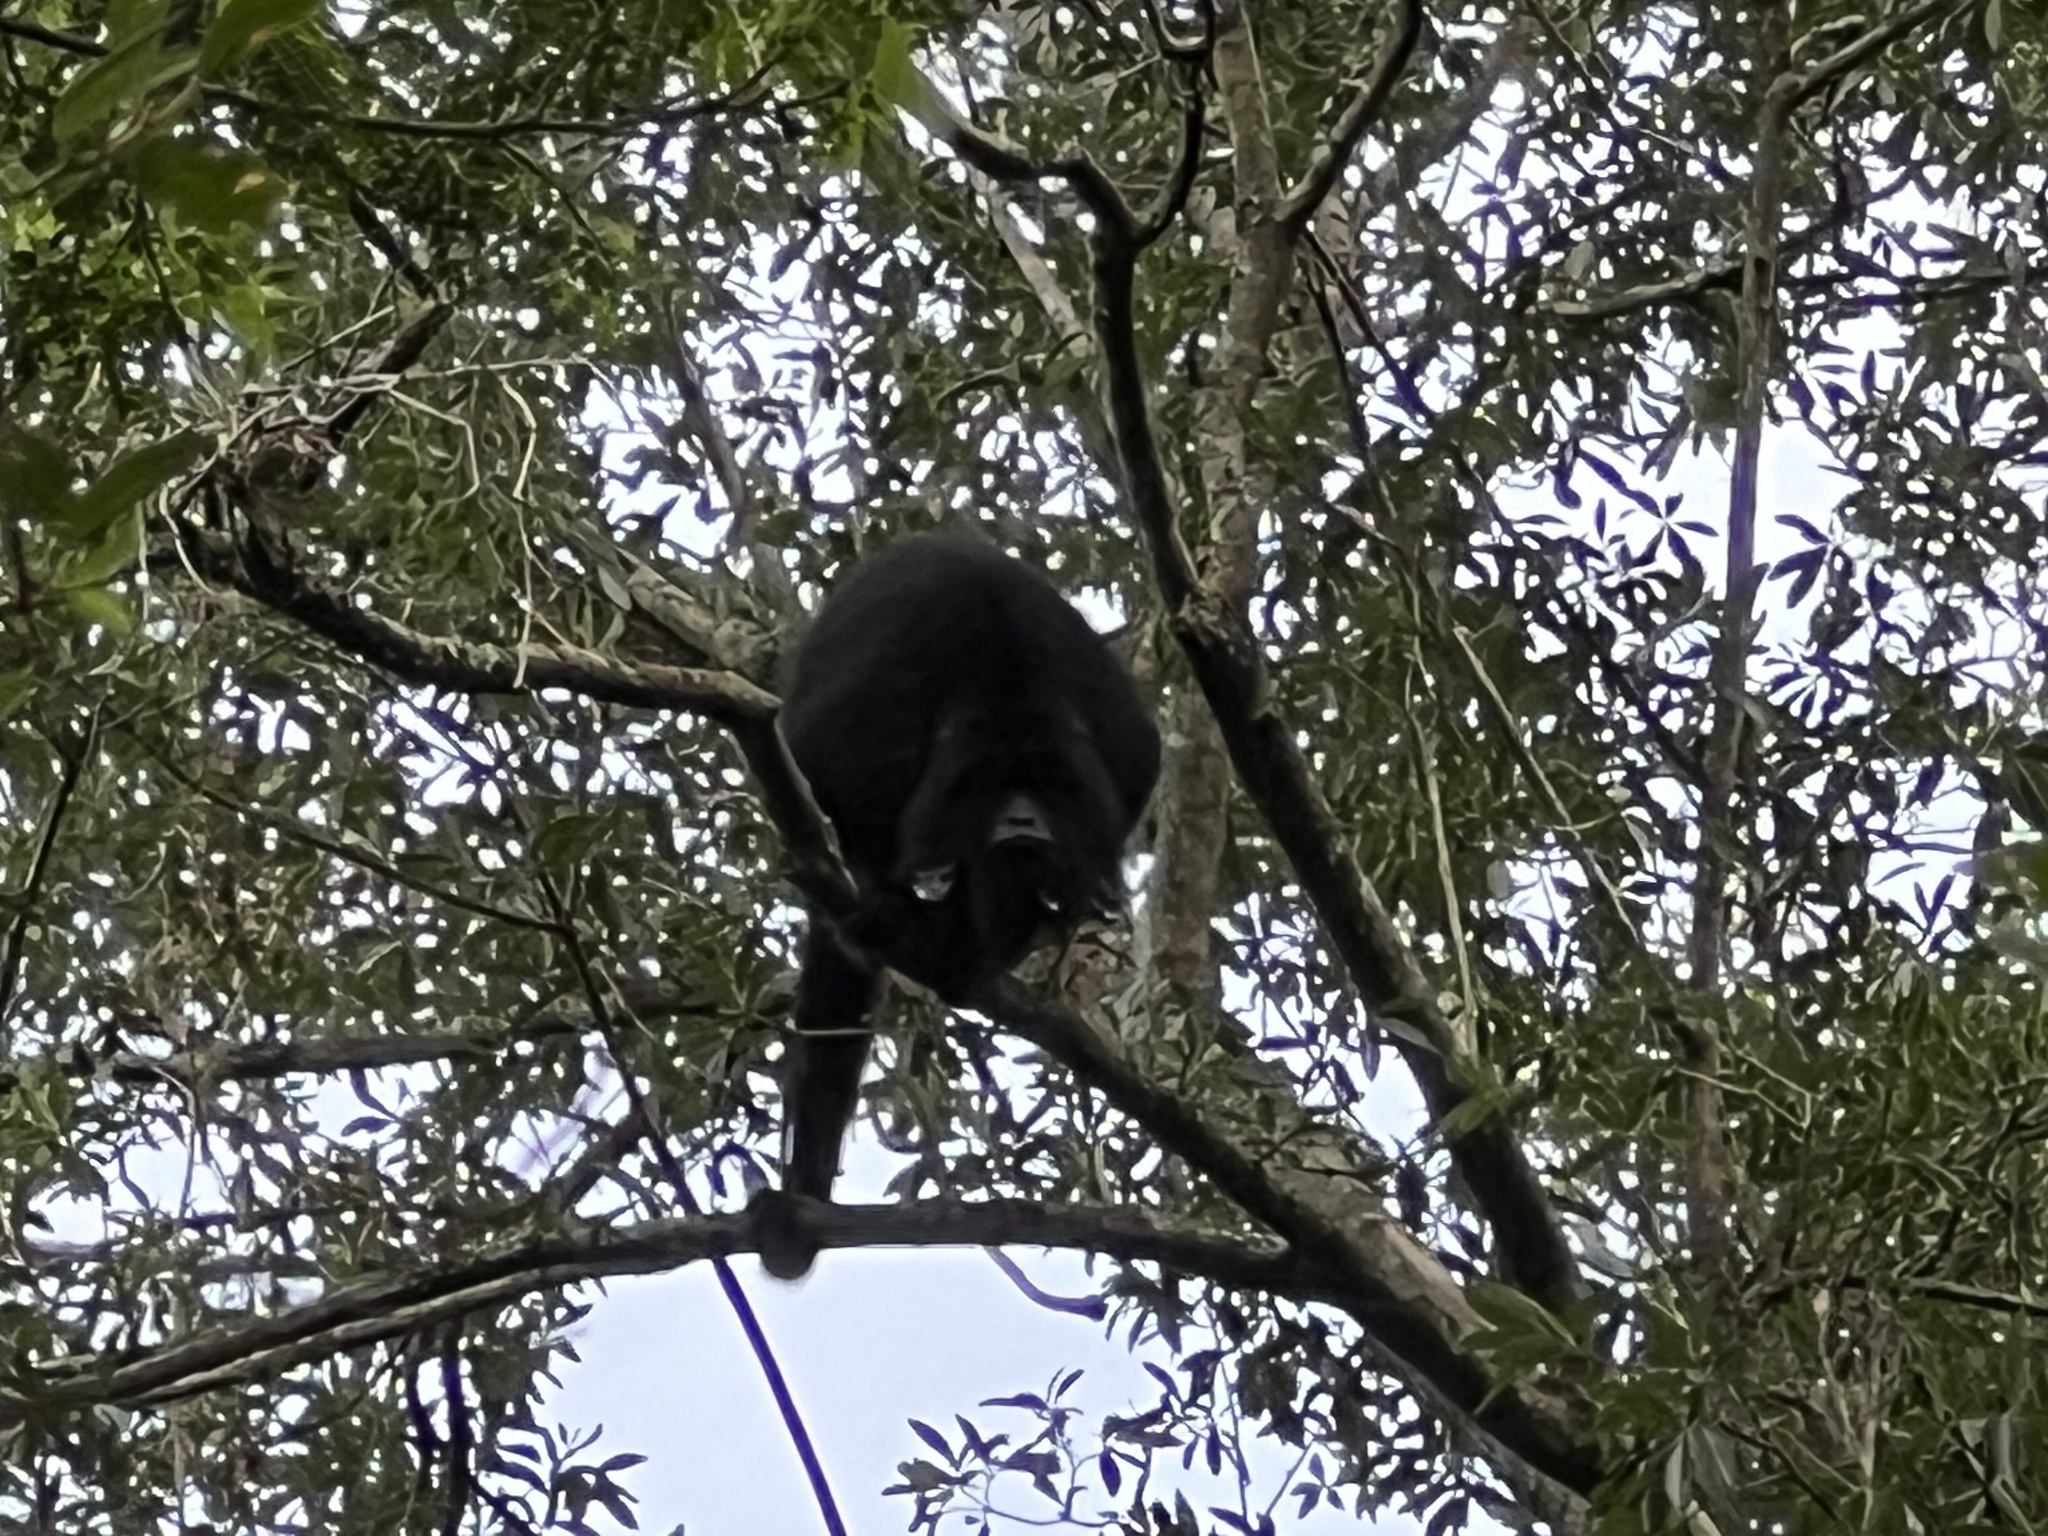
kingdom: Animalia
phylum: Chordata
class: Mammalia
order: Primates
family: Atelidae
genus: Alouatta
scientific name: Alouatta caraya
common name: Black howler
